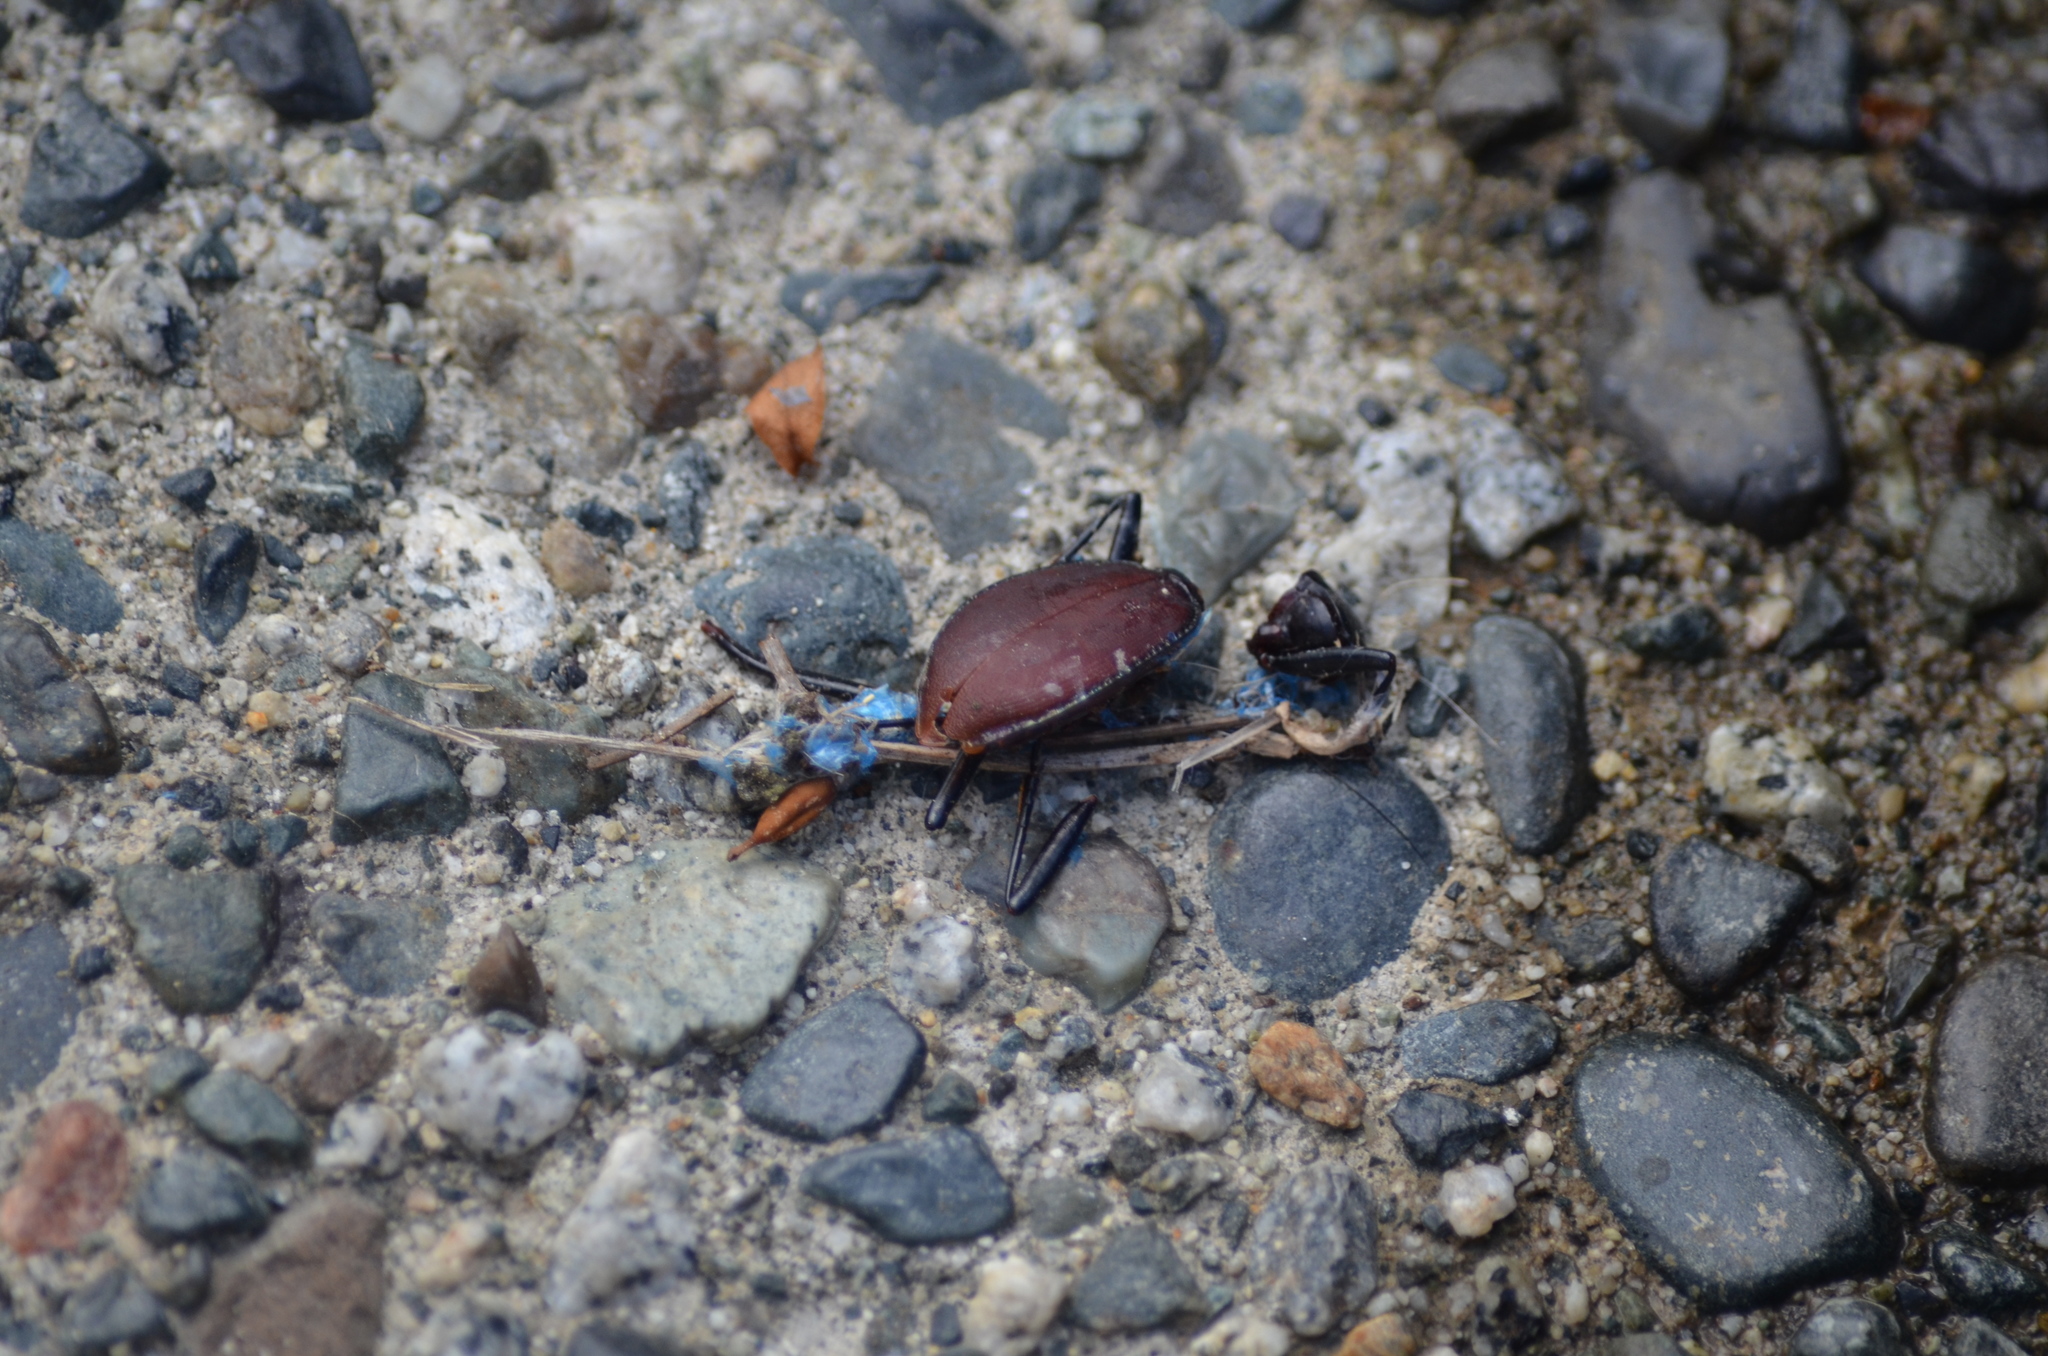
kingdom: Animalia
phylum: Arthropoda
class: Insecta
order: Coleoptera
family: Carabidae
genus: Scaphinotus
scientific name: Scaphinotus angusticollis
